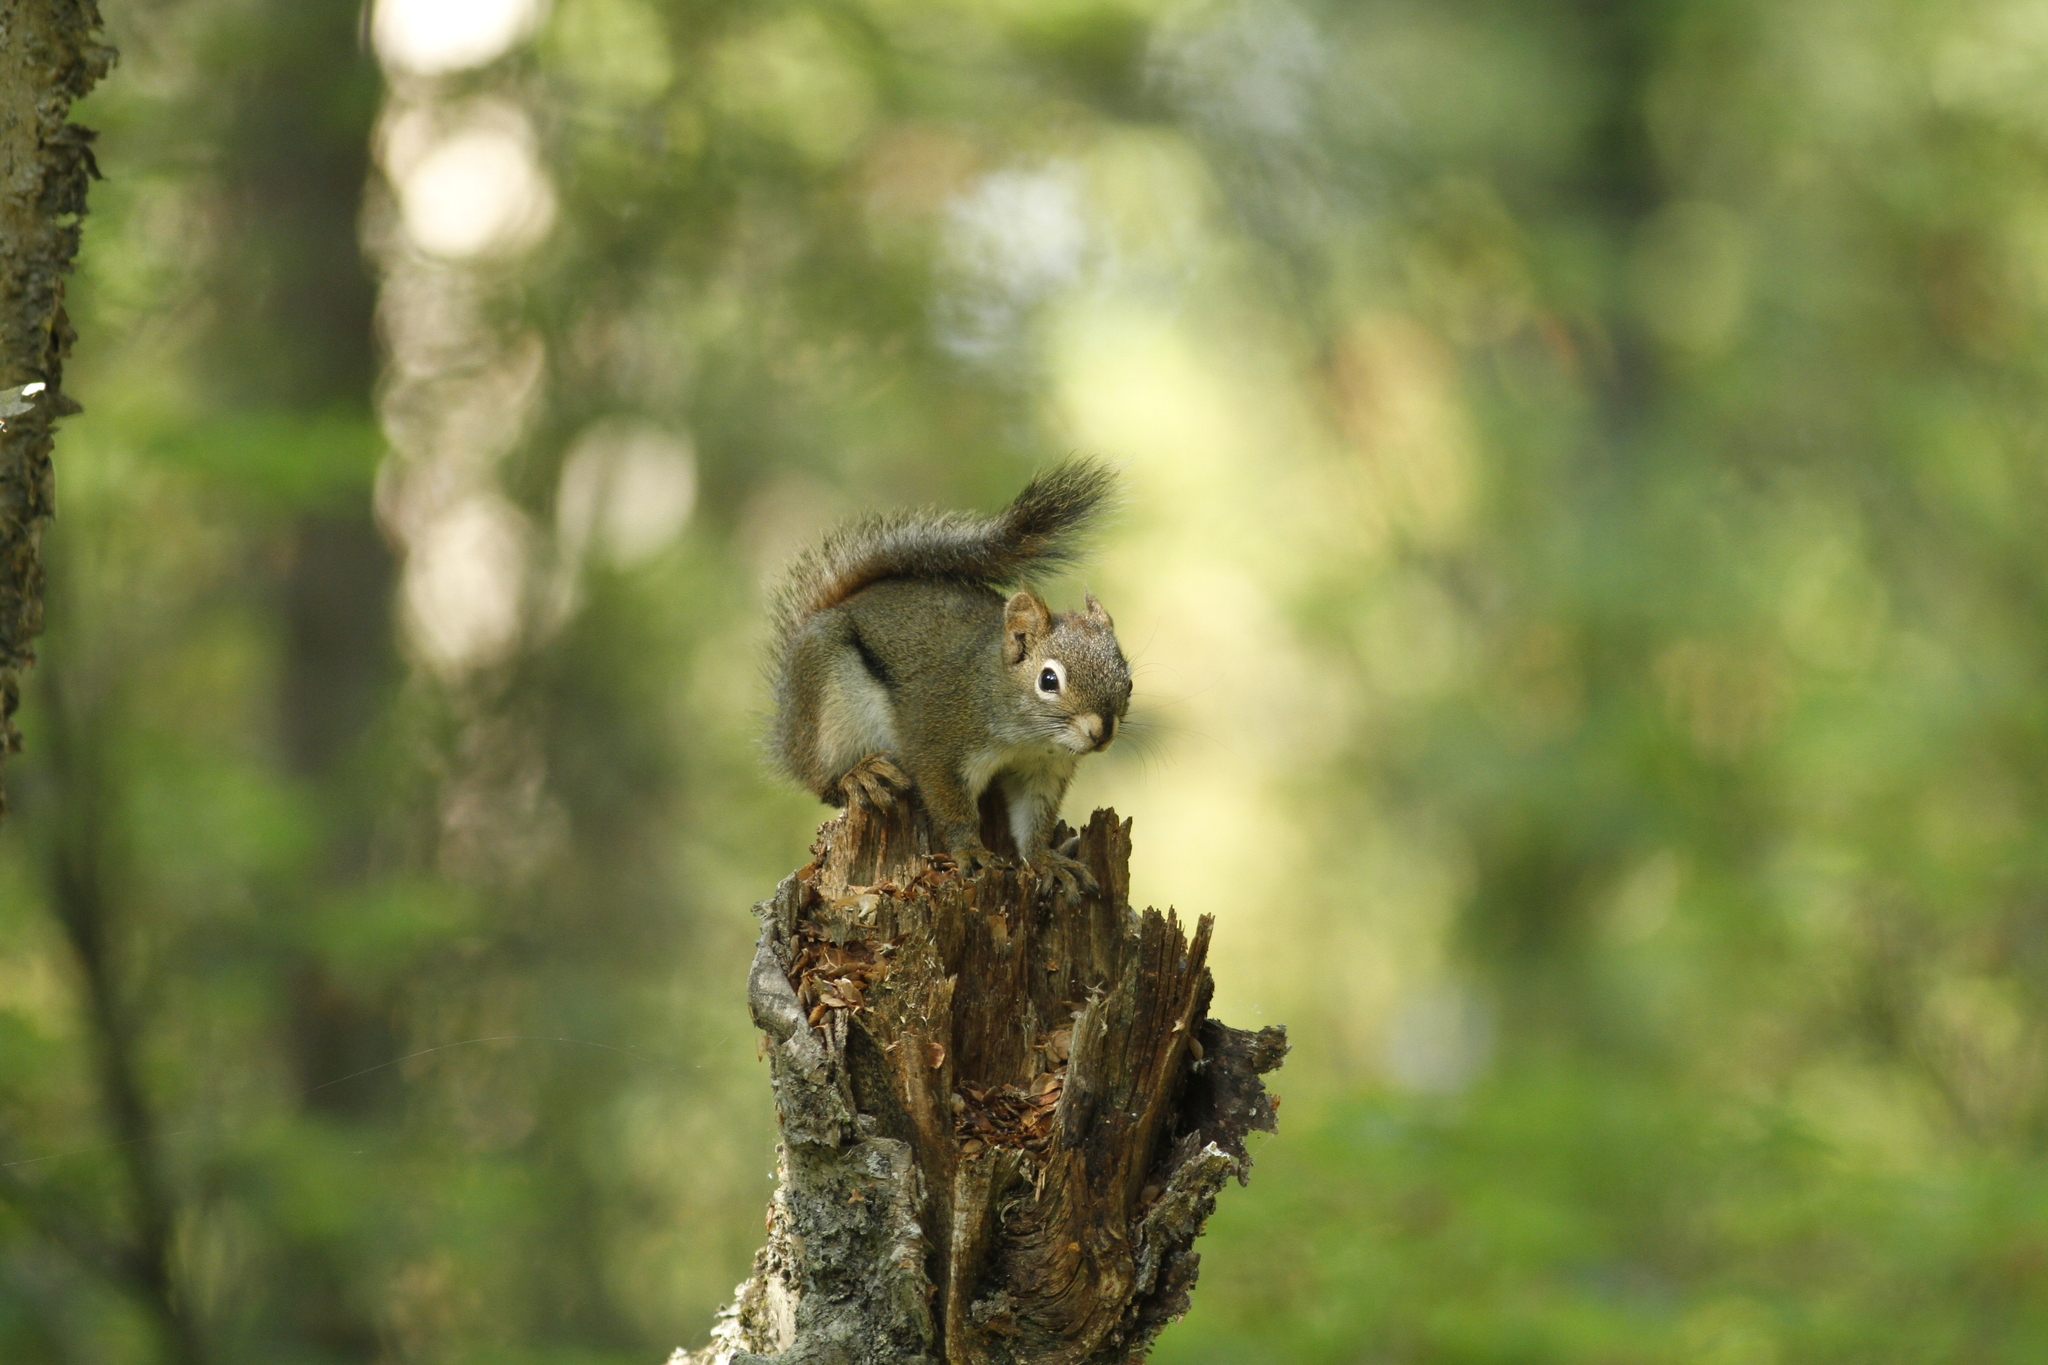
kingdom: Animalia
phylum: Chordata
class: Mammalia
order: Rodentia
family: Sciuridae
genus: Tamiasciurus
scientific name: Tamiasciurus hudsonicus
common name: Red squirrel
